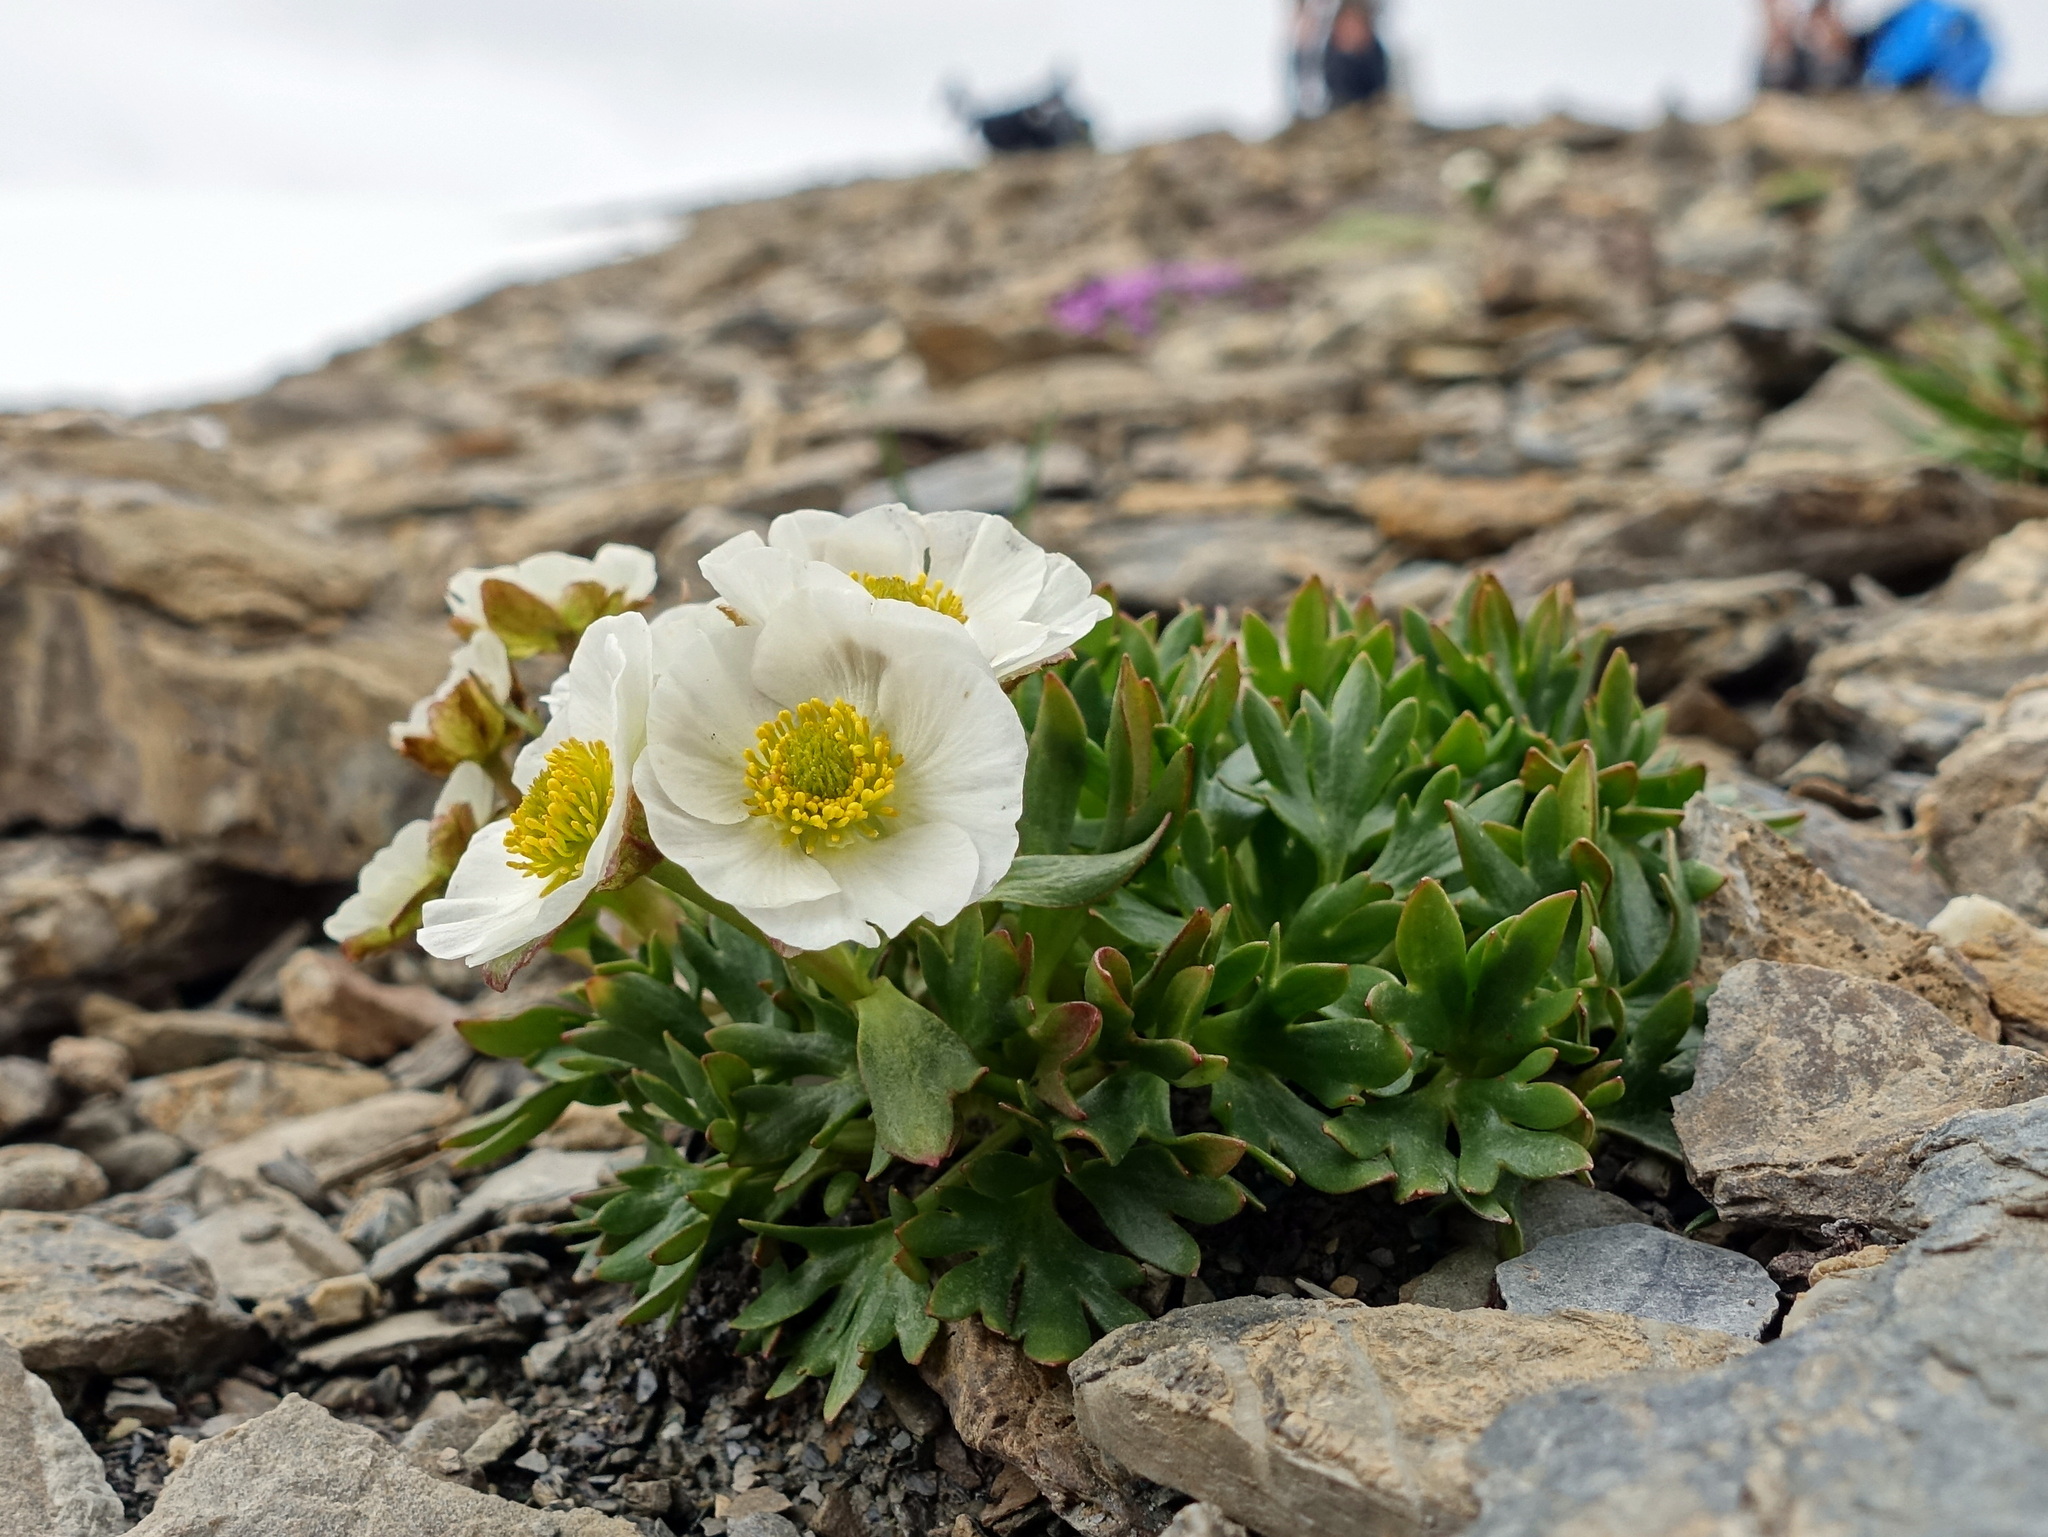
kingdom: Plantae
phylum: Tracheophyta
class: Magnoliopsida
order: Ranunculales
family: Ranunculaceae
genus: Ranunculus
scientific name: Ranunculus glacialis
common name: Glacier buttercup
